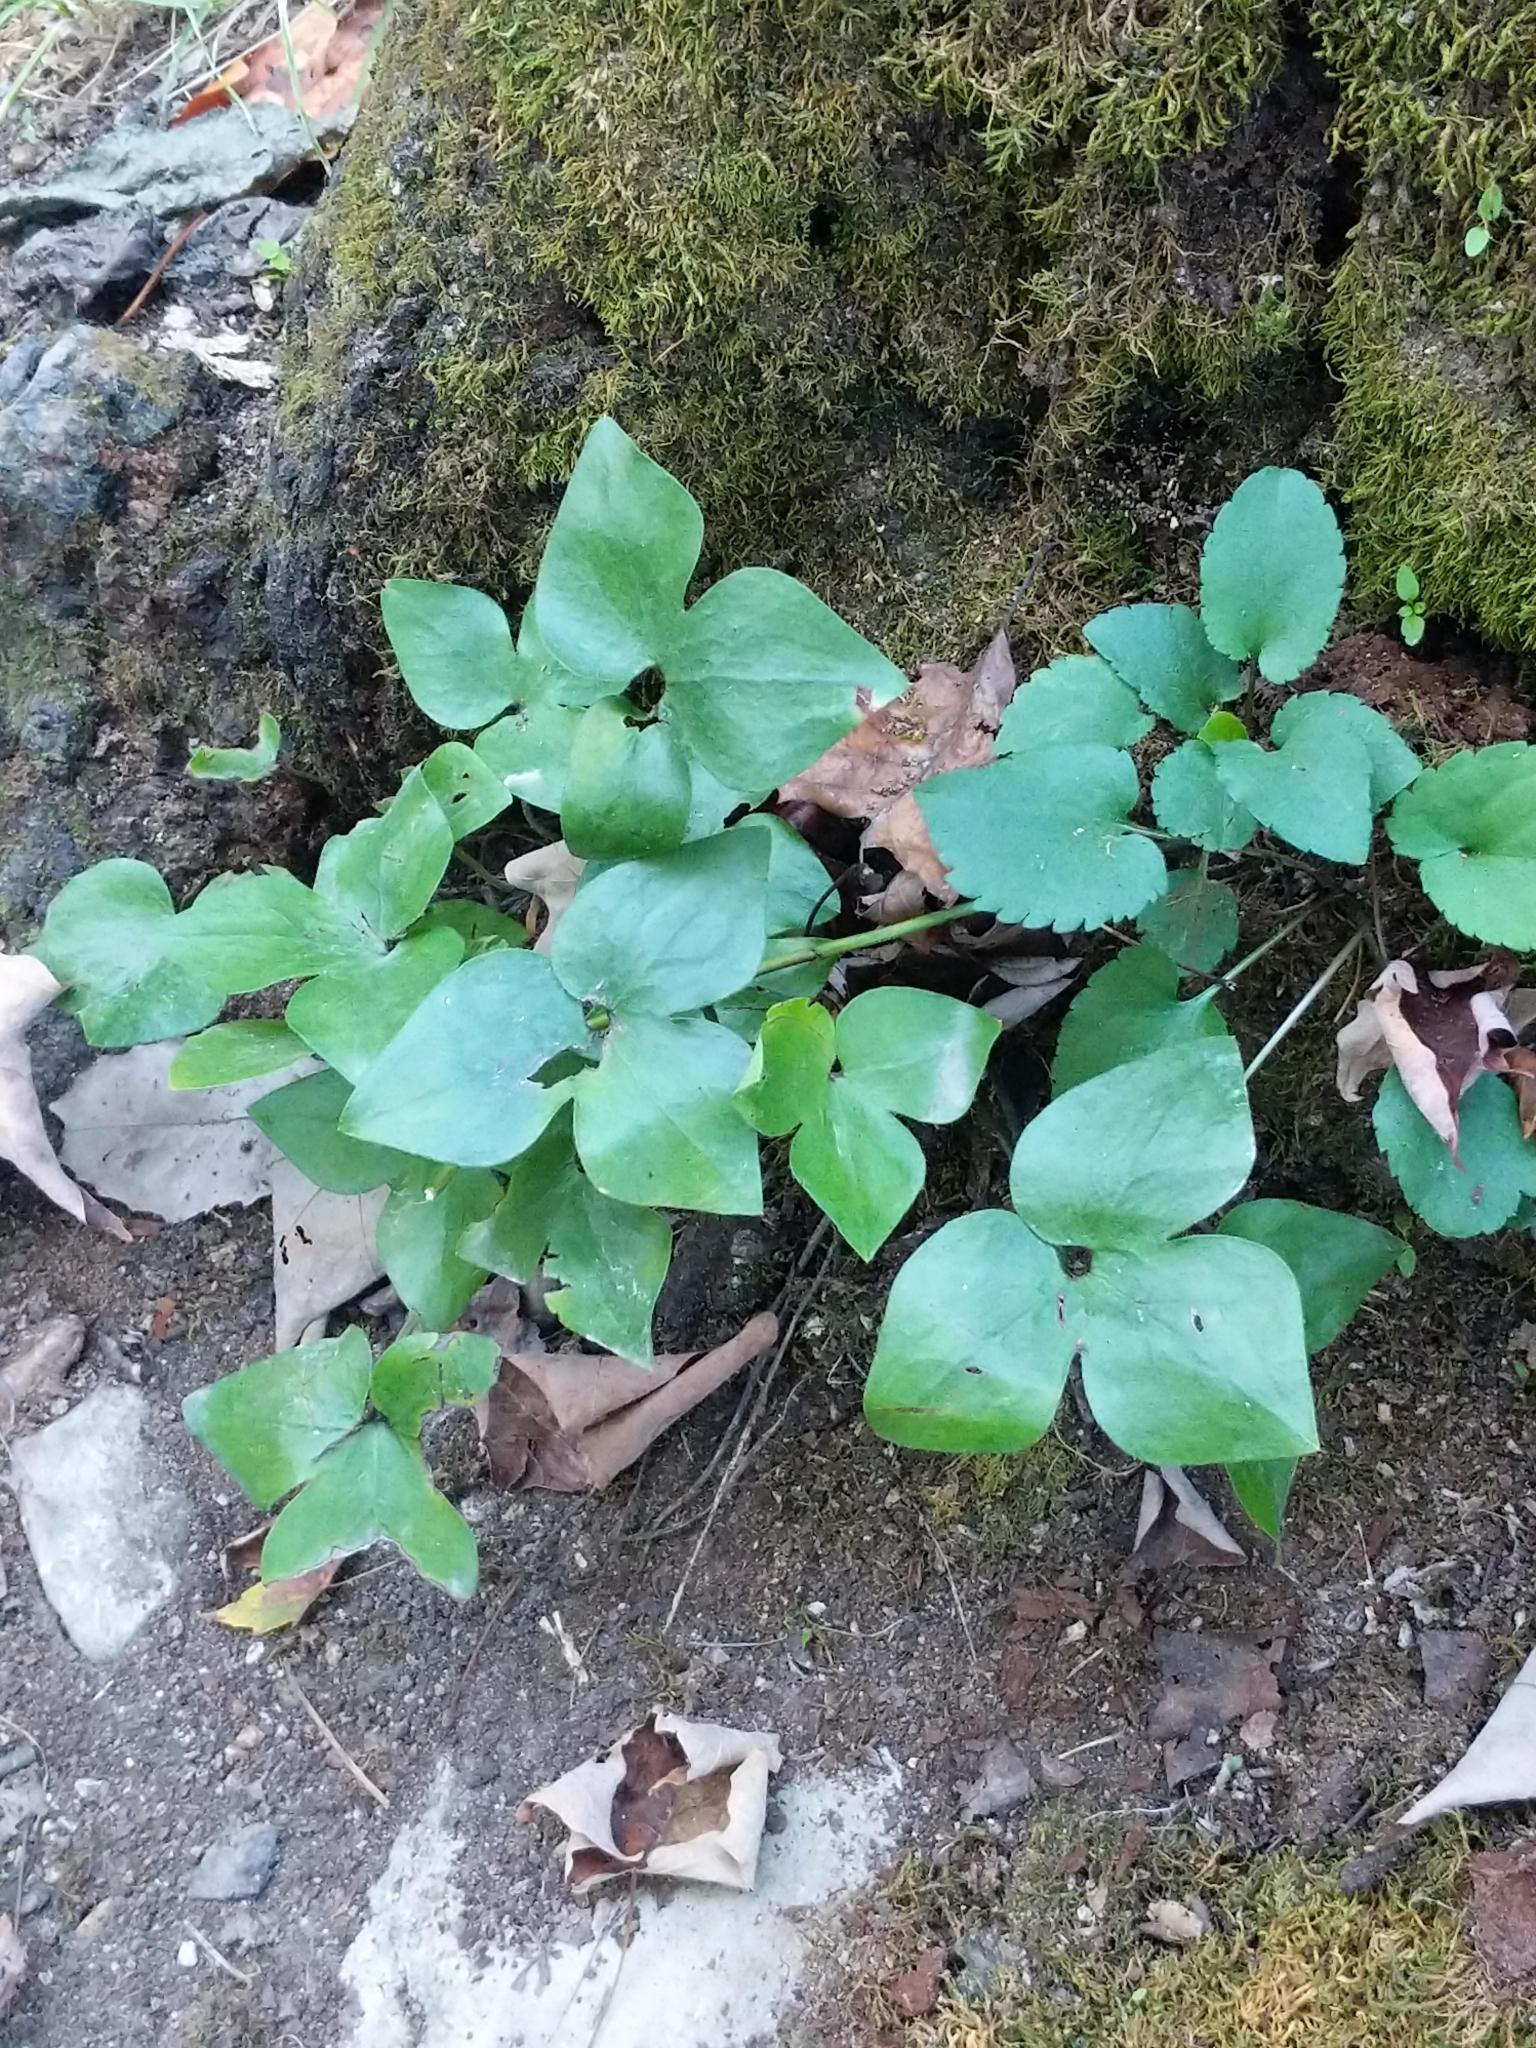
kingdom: Plantae
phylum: Tracheophyta
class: Magnoliopsida
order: Ranunculales
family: Ranunculaceae
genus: Hepatica
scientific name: Hepatica acutiloba
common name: Sharp-lobed hepatica
